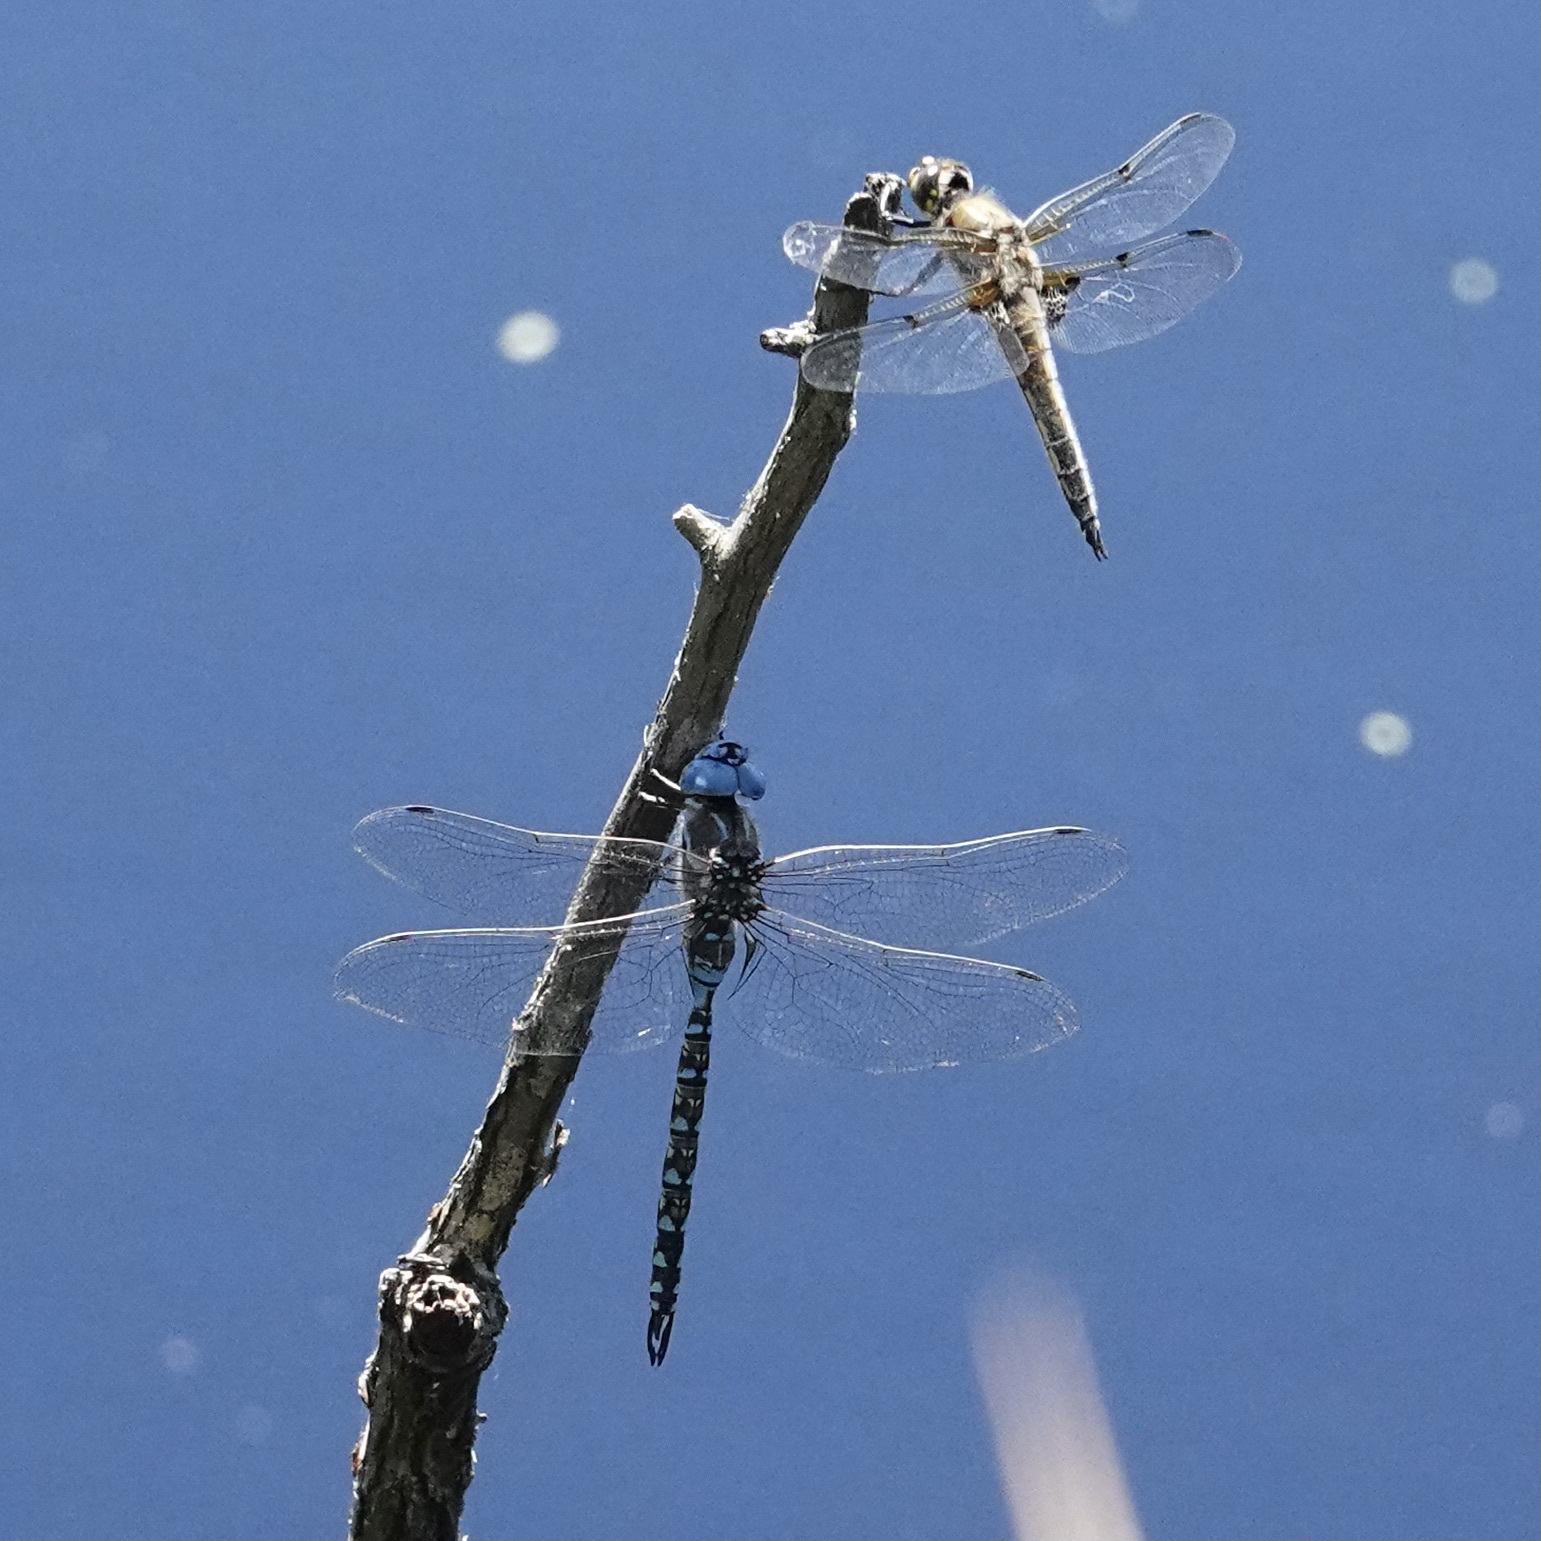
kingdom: Animalia
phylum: Arthropoda
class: Insecta
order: Odonata
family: Aeshnidae
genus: Rhionaeschna
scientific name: Rhionaeschna multicolor
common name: Blue-eyed darner
